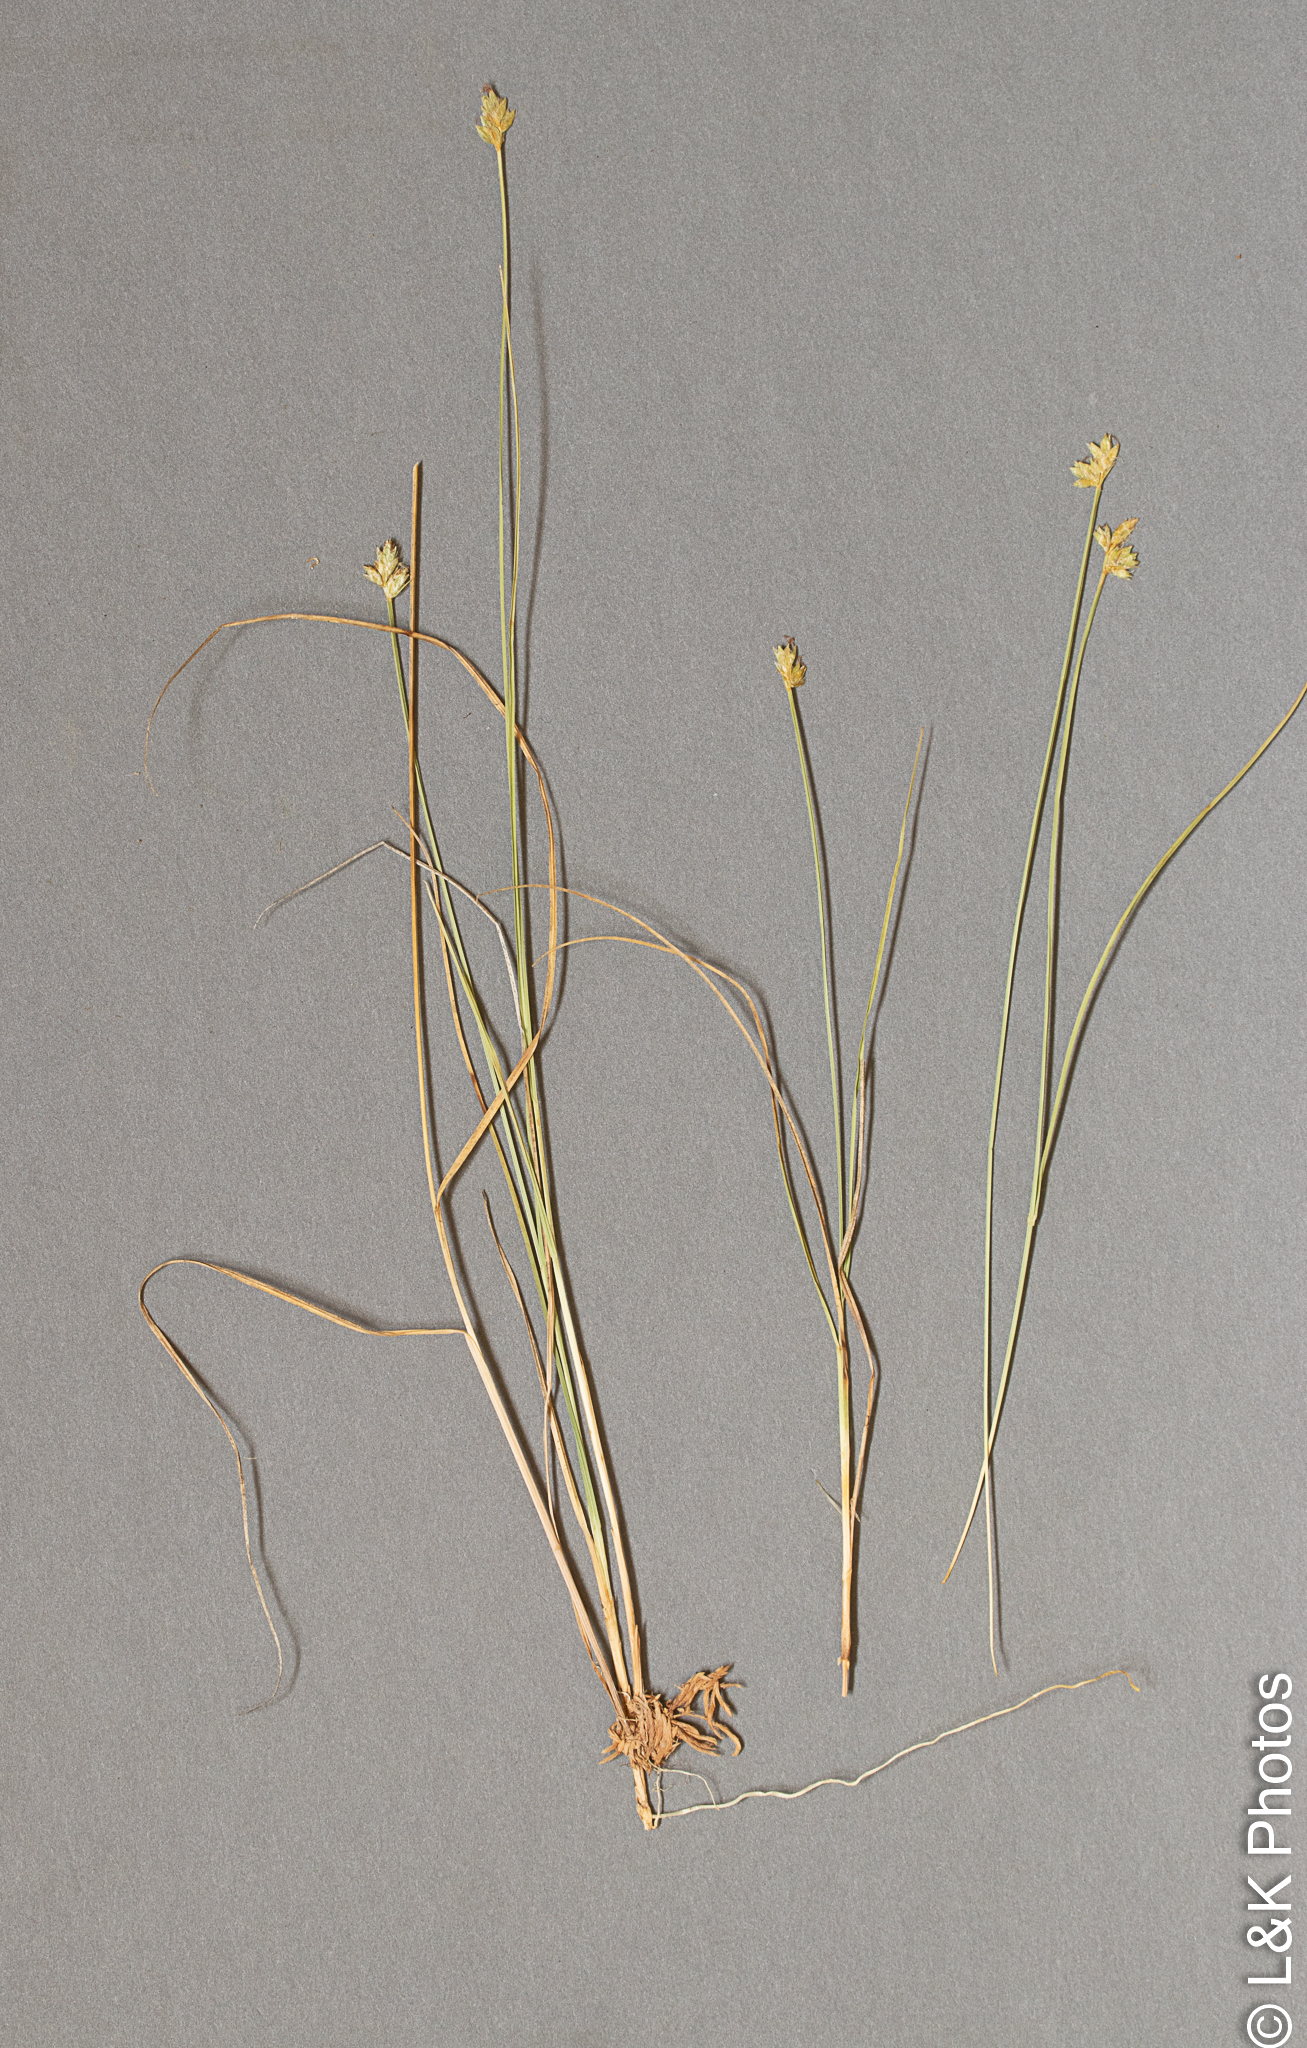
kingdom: Plantae
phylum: Tracheophyta
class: Liliopsida
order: Poales
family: Cyperaceae
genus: Carex
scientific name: Carex tenuiflora
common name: Sparse-flowered sedge
